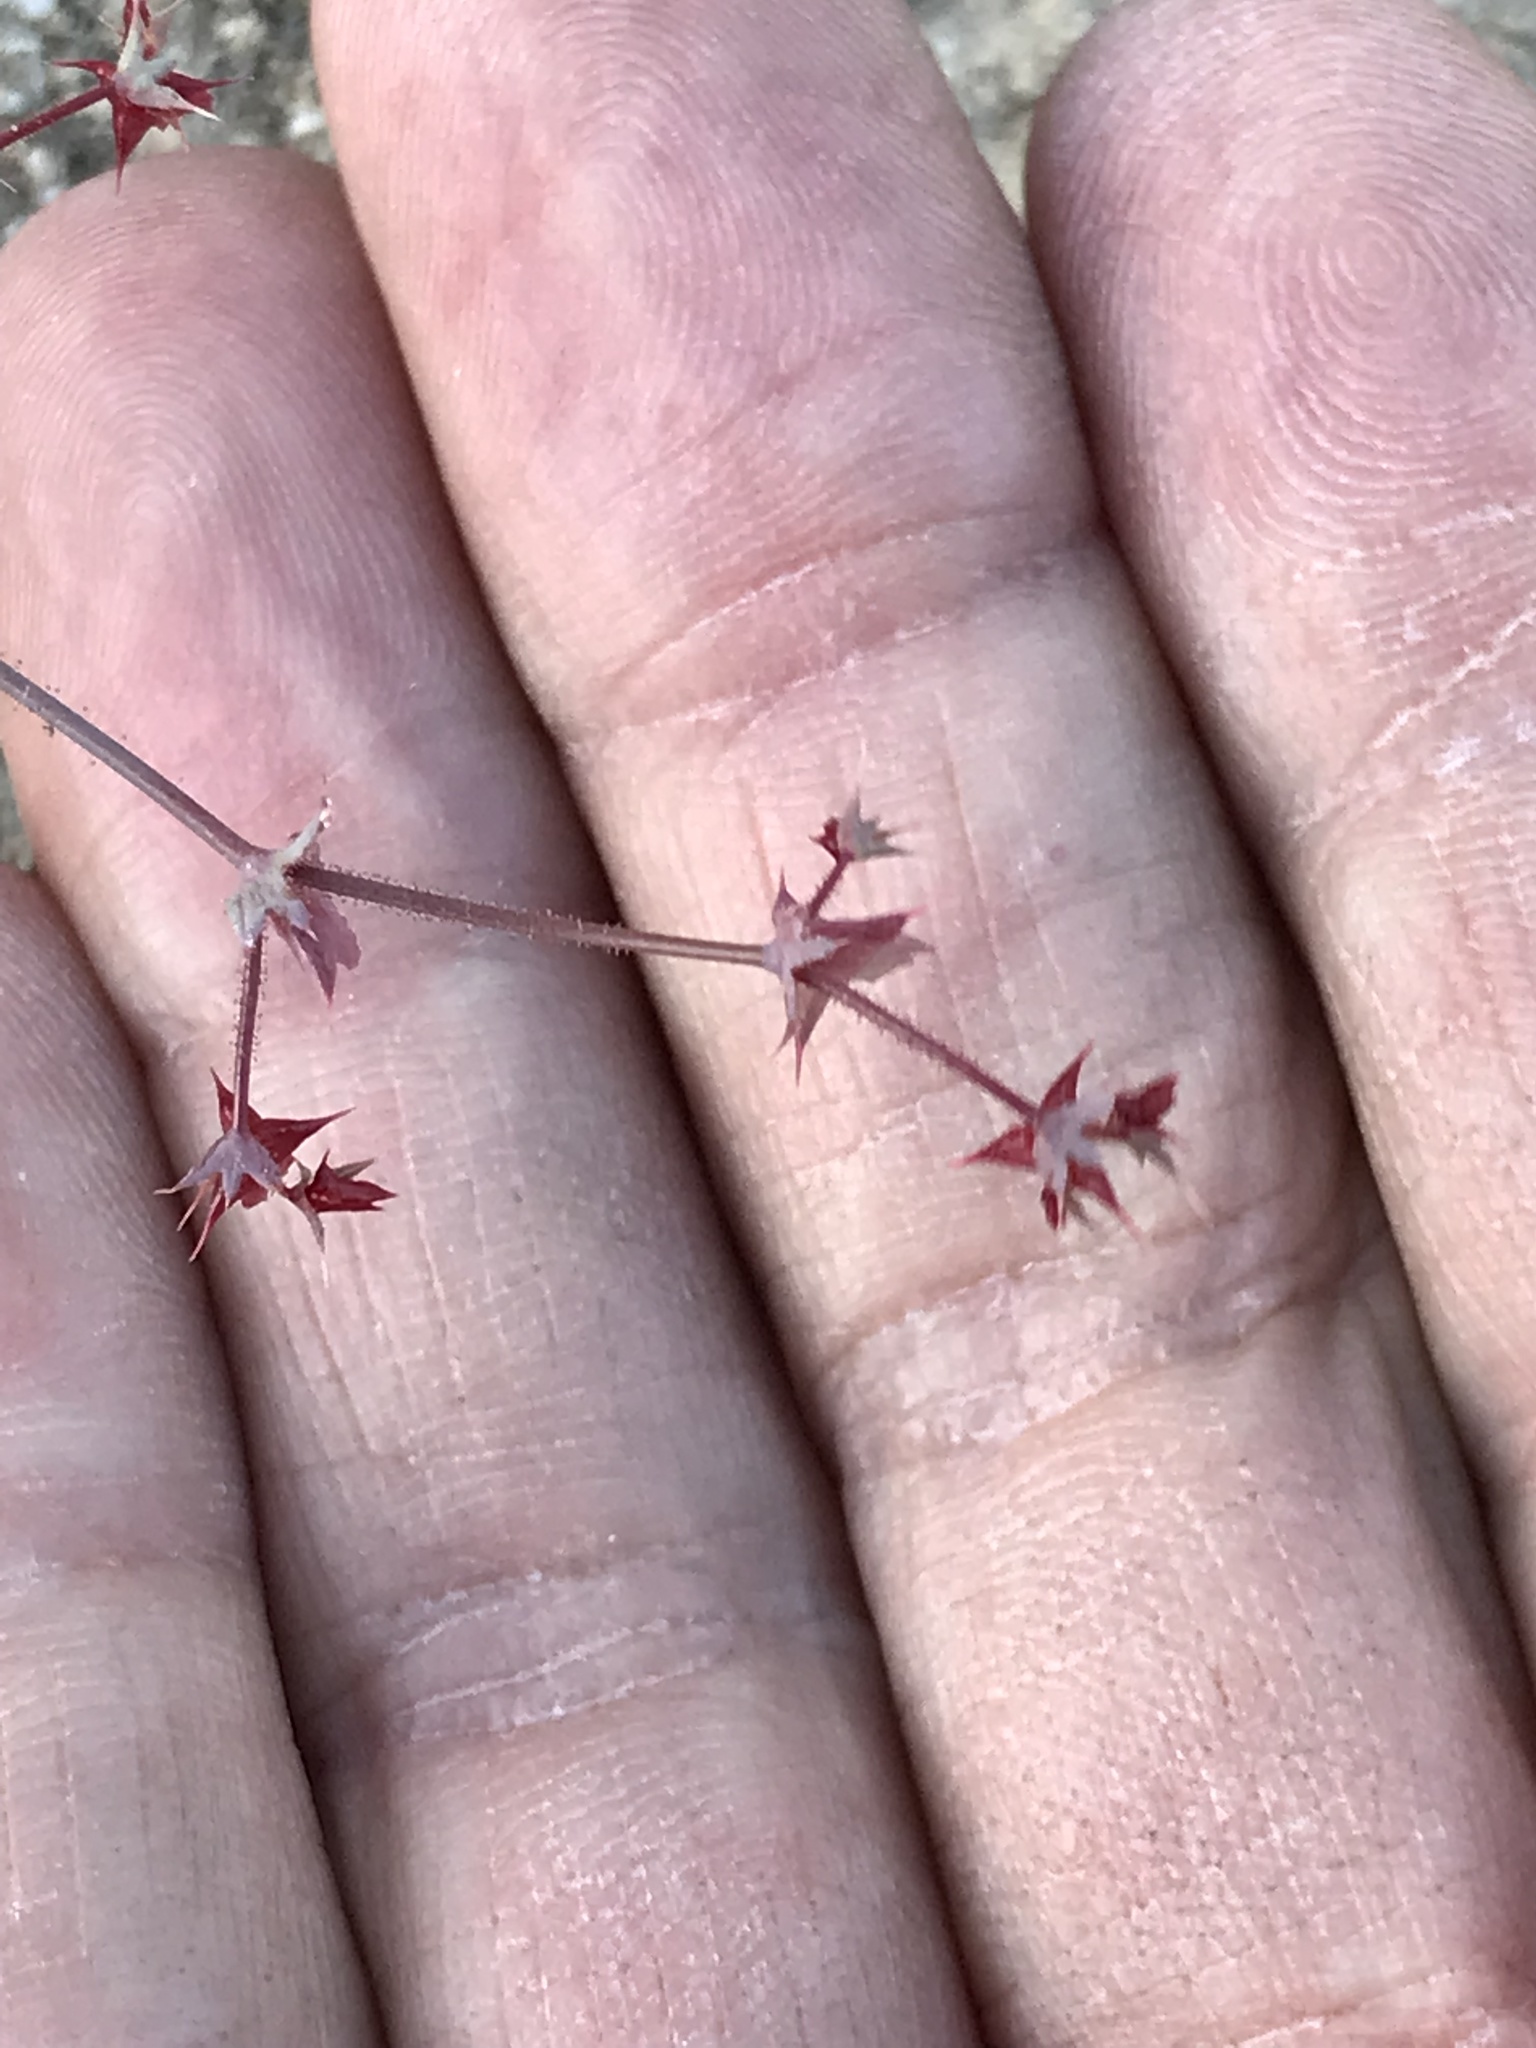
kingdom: Plantae
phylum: Tracheophyta
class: Magnoliopsida
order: Caryophyllales
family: Polygonaceae
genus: Centrostegia
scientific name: Centrostegia thurberi
